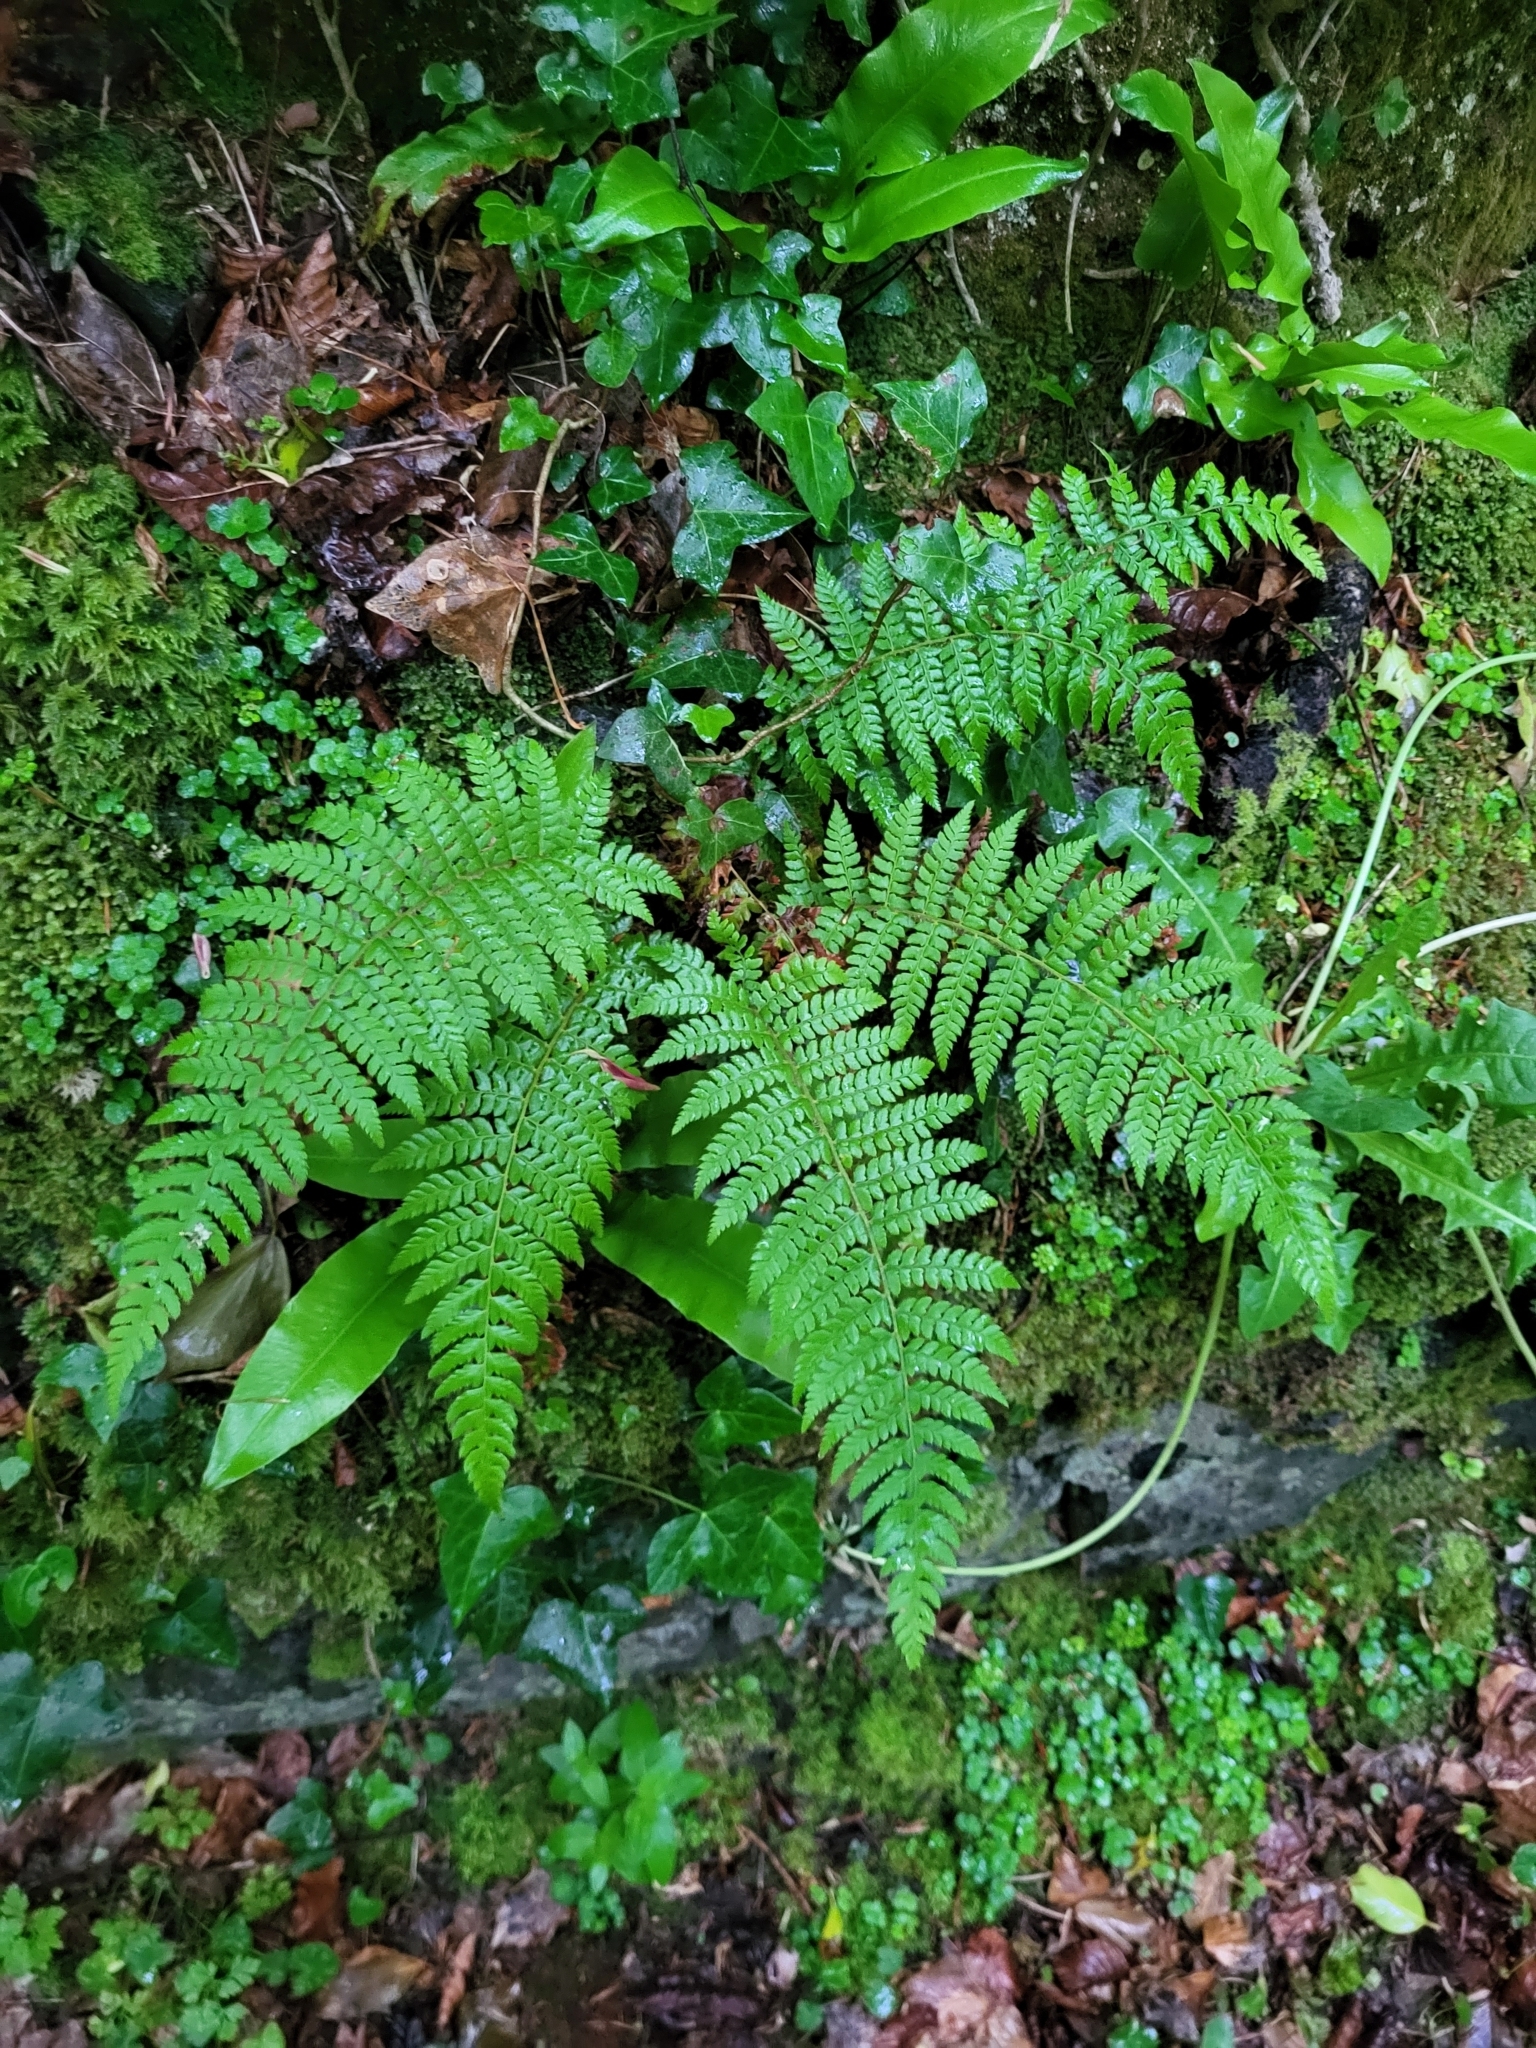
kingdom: Plantae
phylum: Tracheophyta
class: Polypodiopsida
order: Polypodiales
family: Dryopteridaceae
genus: Polystichum
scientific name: Polystichum setiferum
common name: Soft shield-fern
